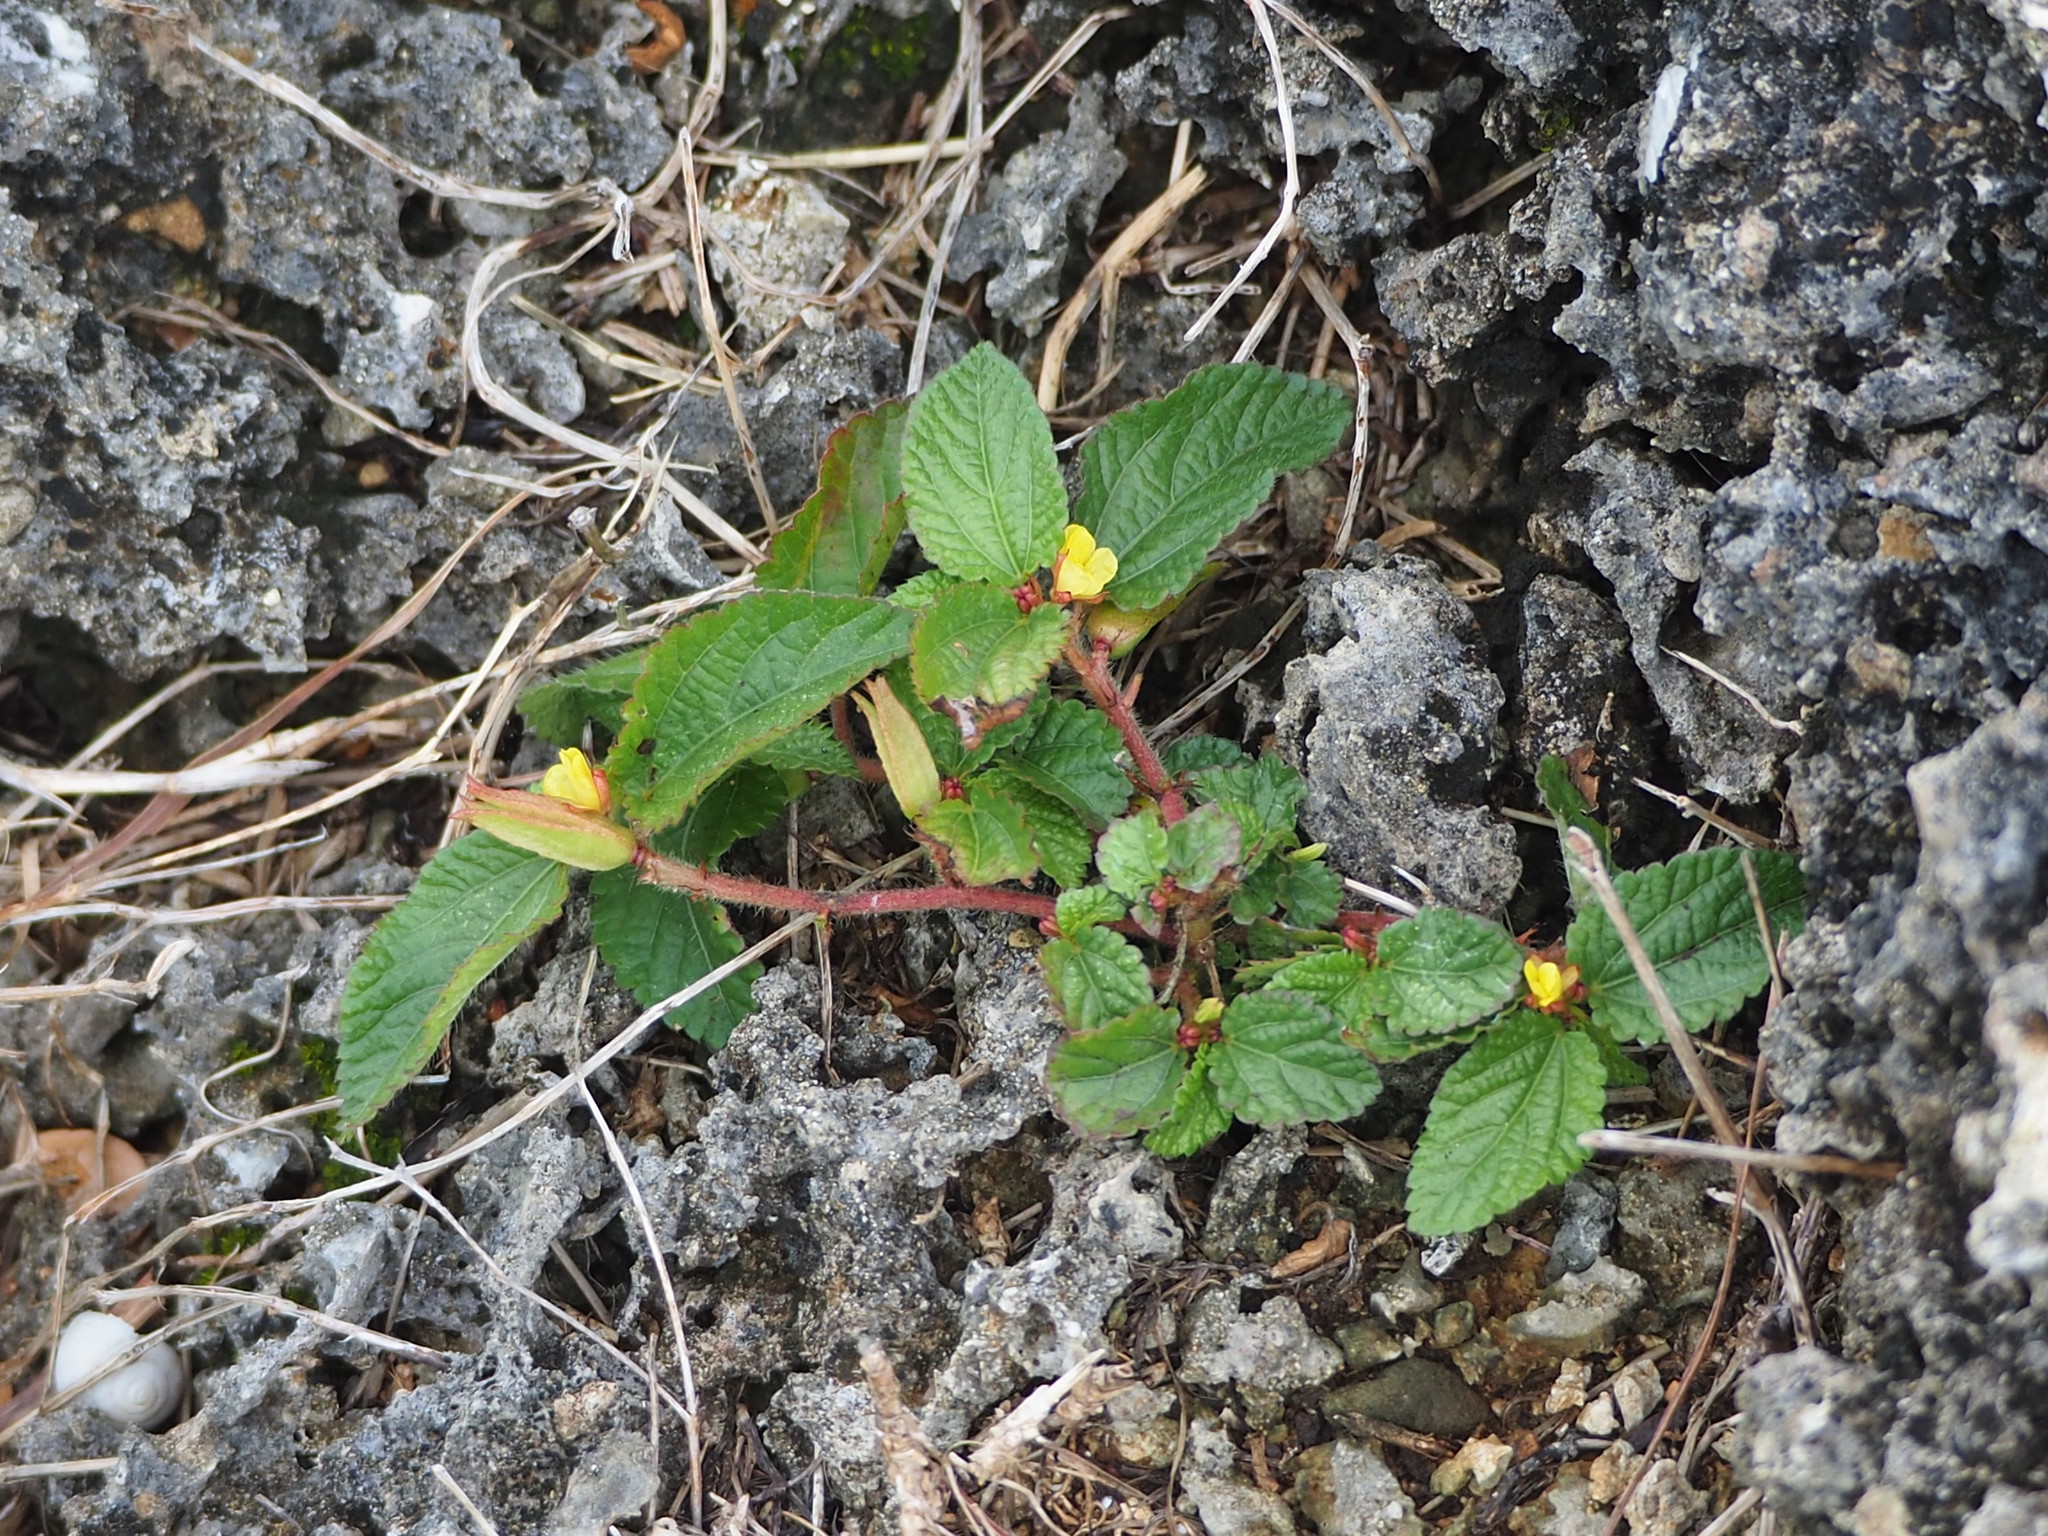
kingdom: Plantae
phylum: Tracheophyta
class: Magnoliopsida
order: Malvales
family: Malvaceae
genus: Corchorus
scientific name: Corchorus aestuans
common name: Jute
